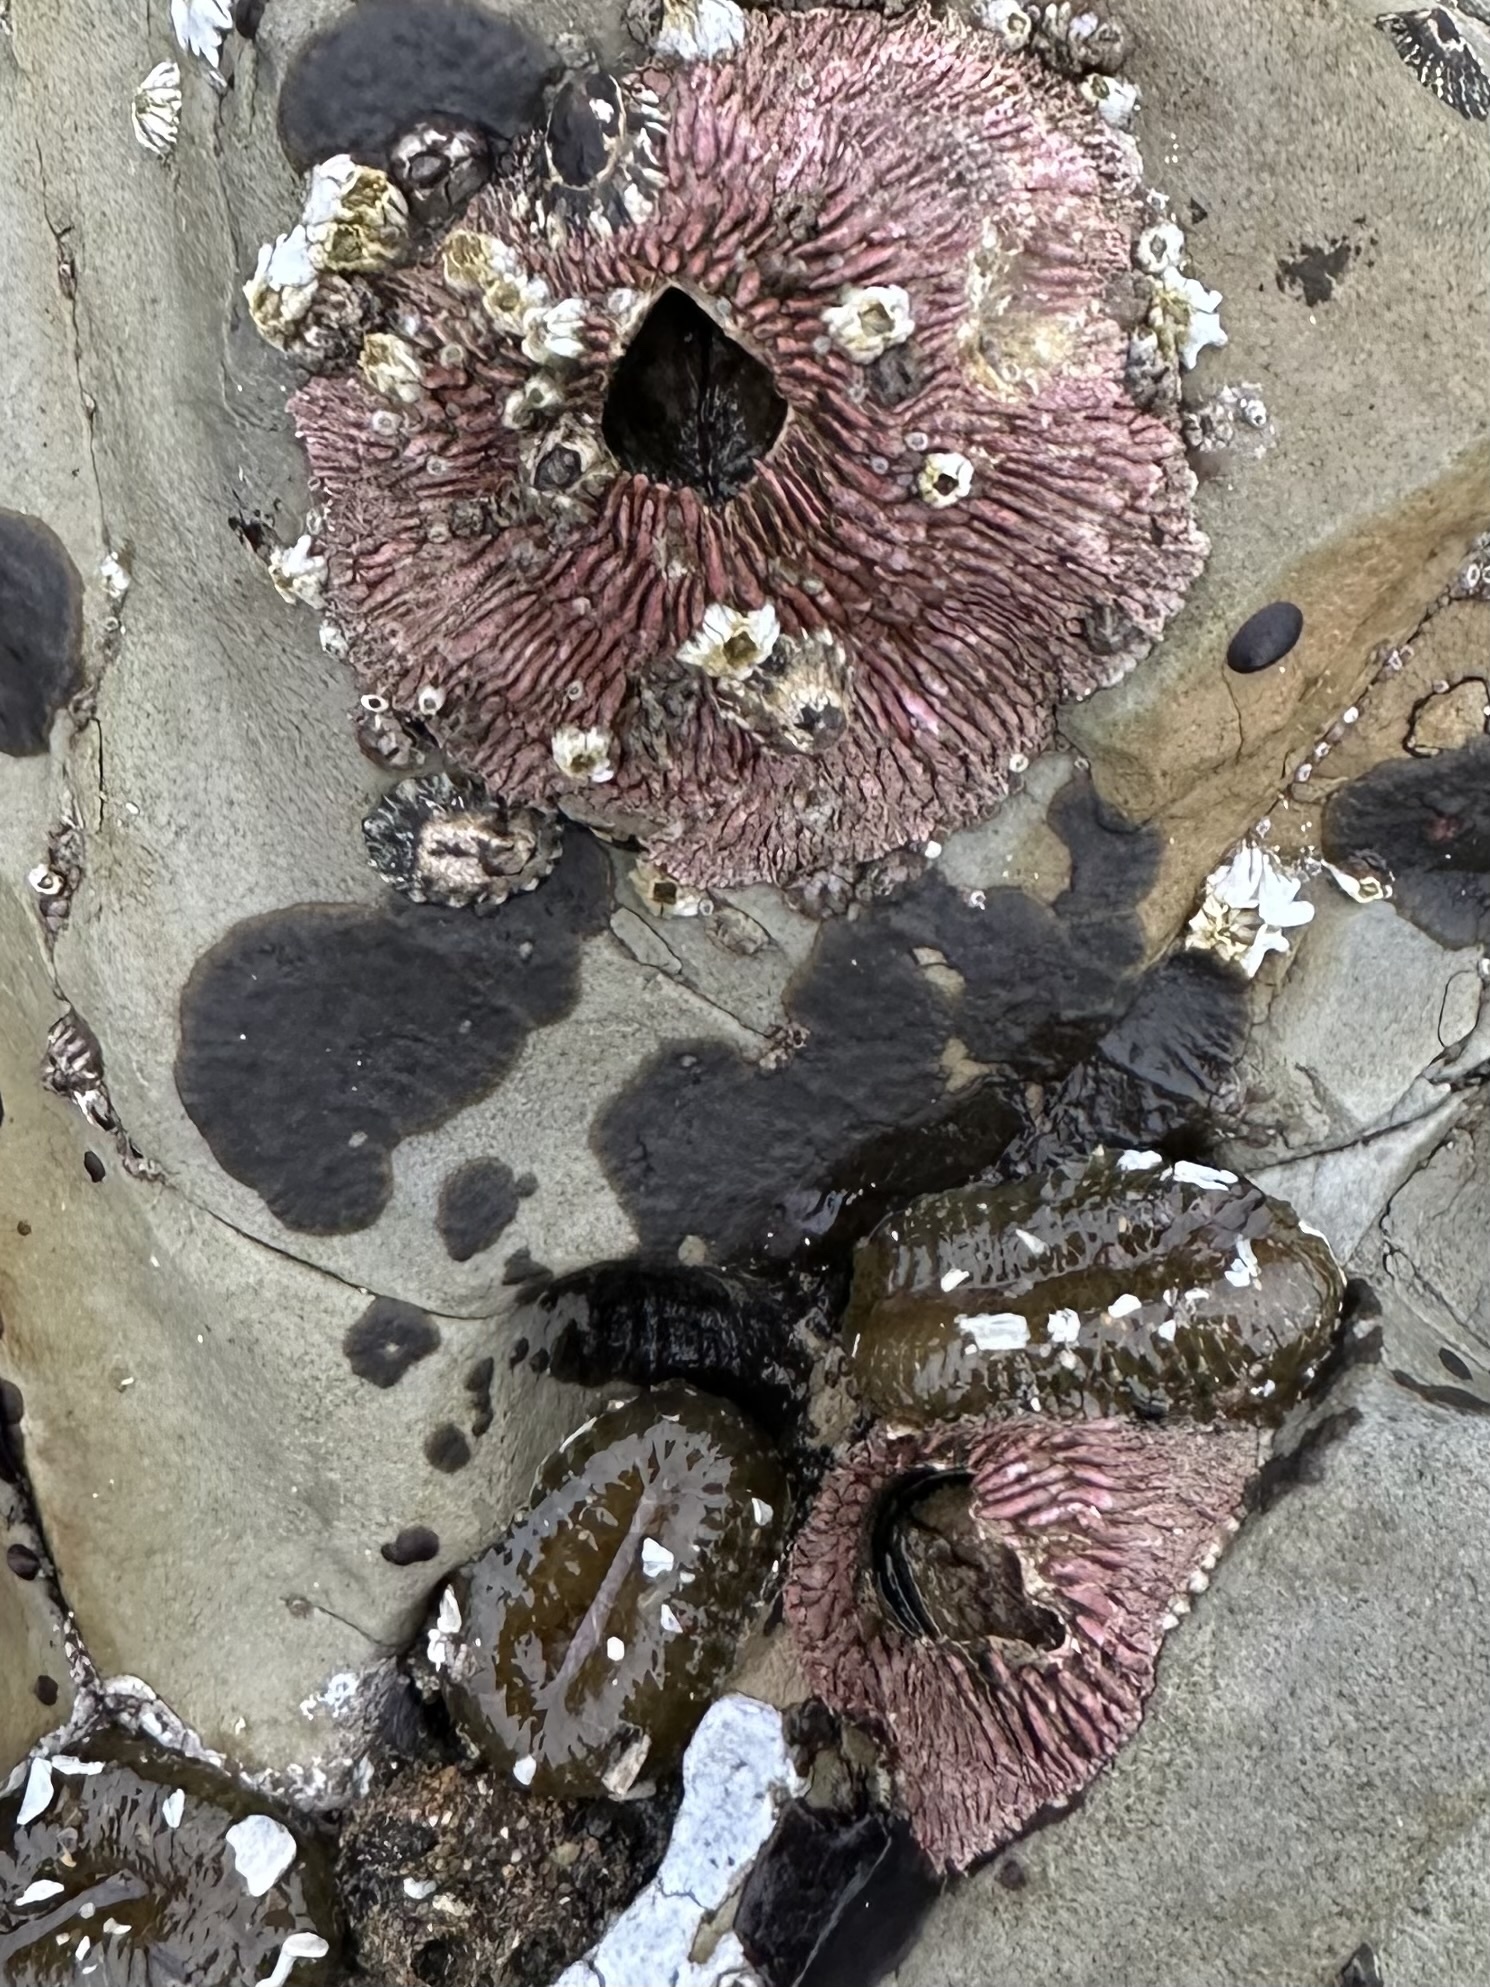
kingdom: Animalia
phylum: Arthropoda
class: Maxillopoda
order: Sessilia
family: Tetraclitidae
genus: Tetraclita
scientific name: Tetraclita rubescens
